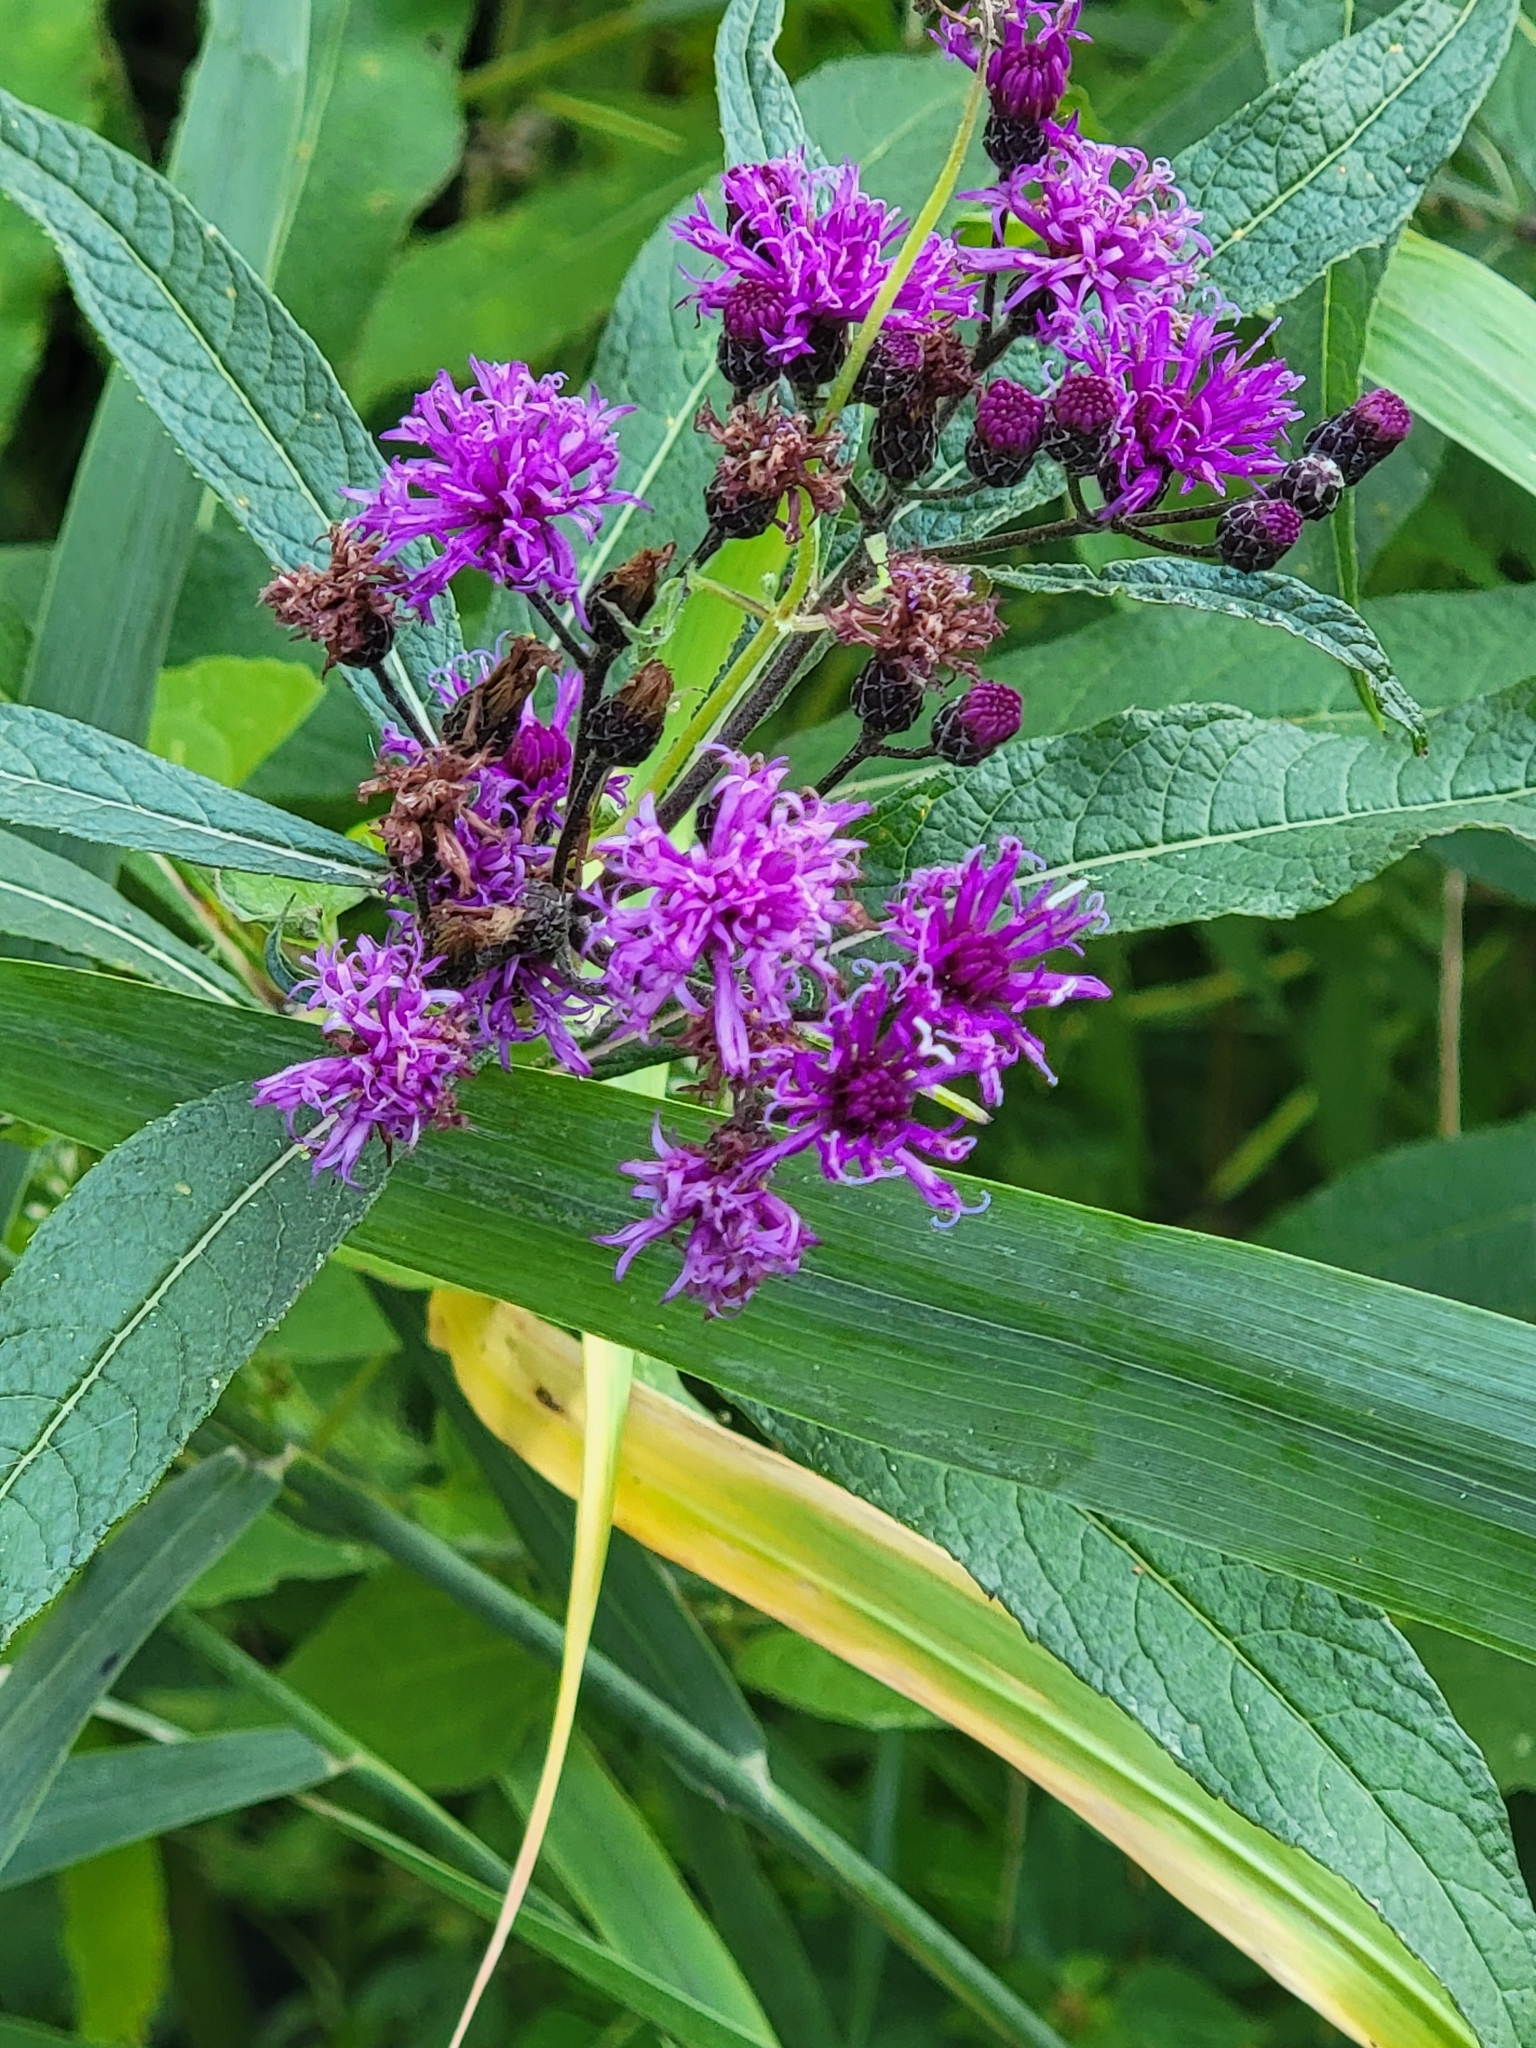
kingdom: Plantae
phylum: Tracheophyta
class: Magnoliopsida
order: Asterales
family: Asteraceae
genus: Vernonia
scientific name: Vernonia noveboracensis
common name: New york ironweed
